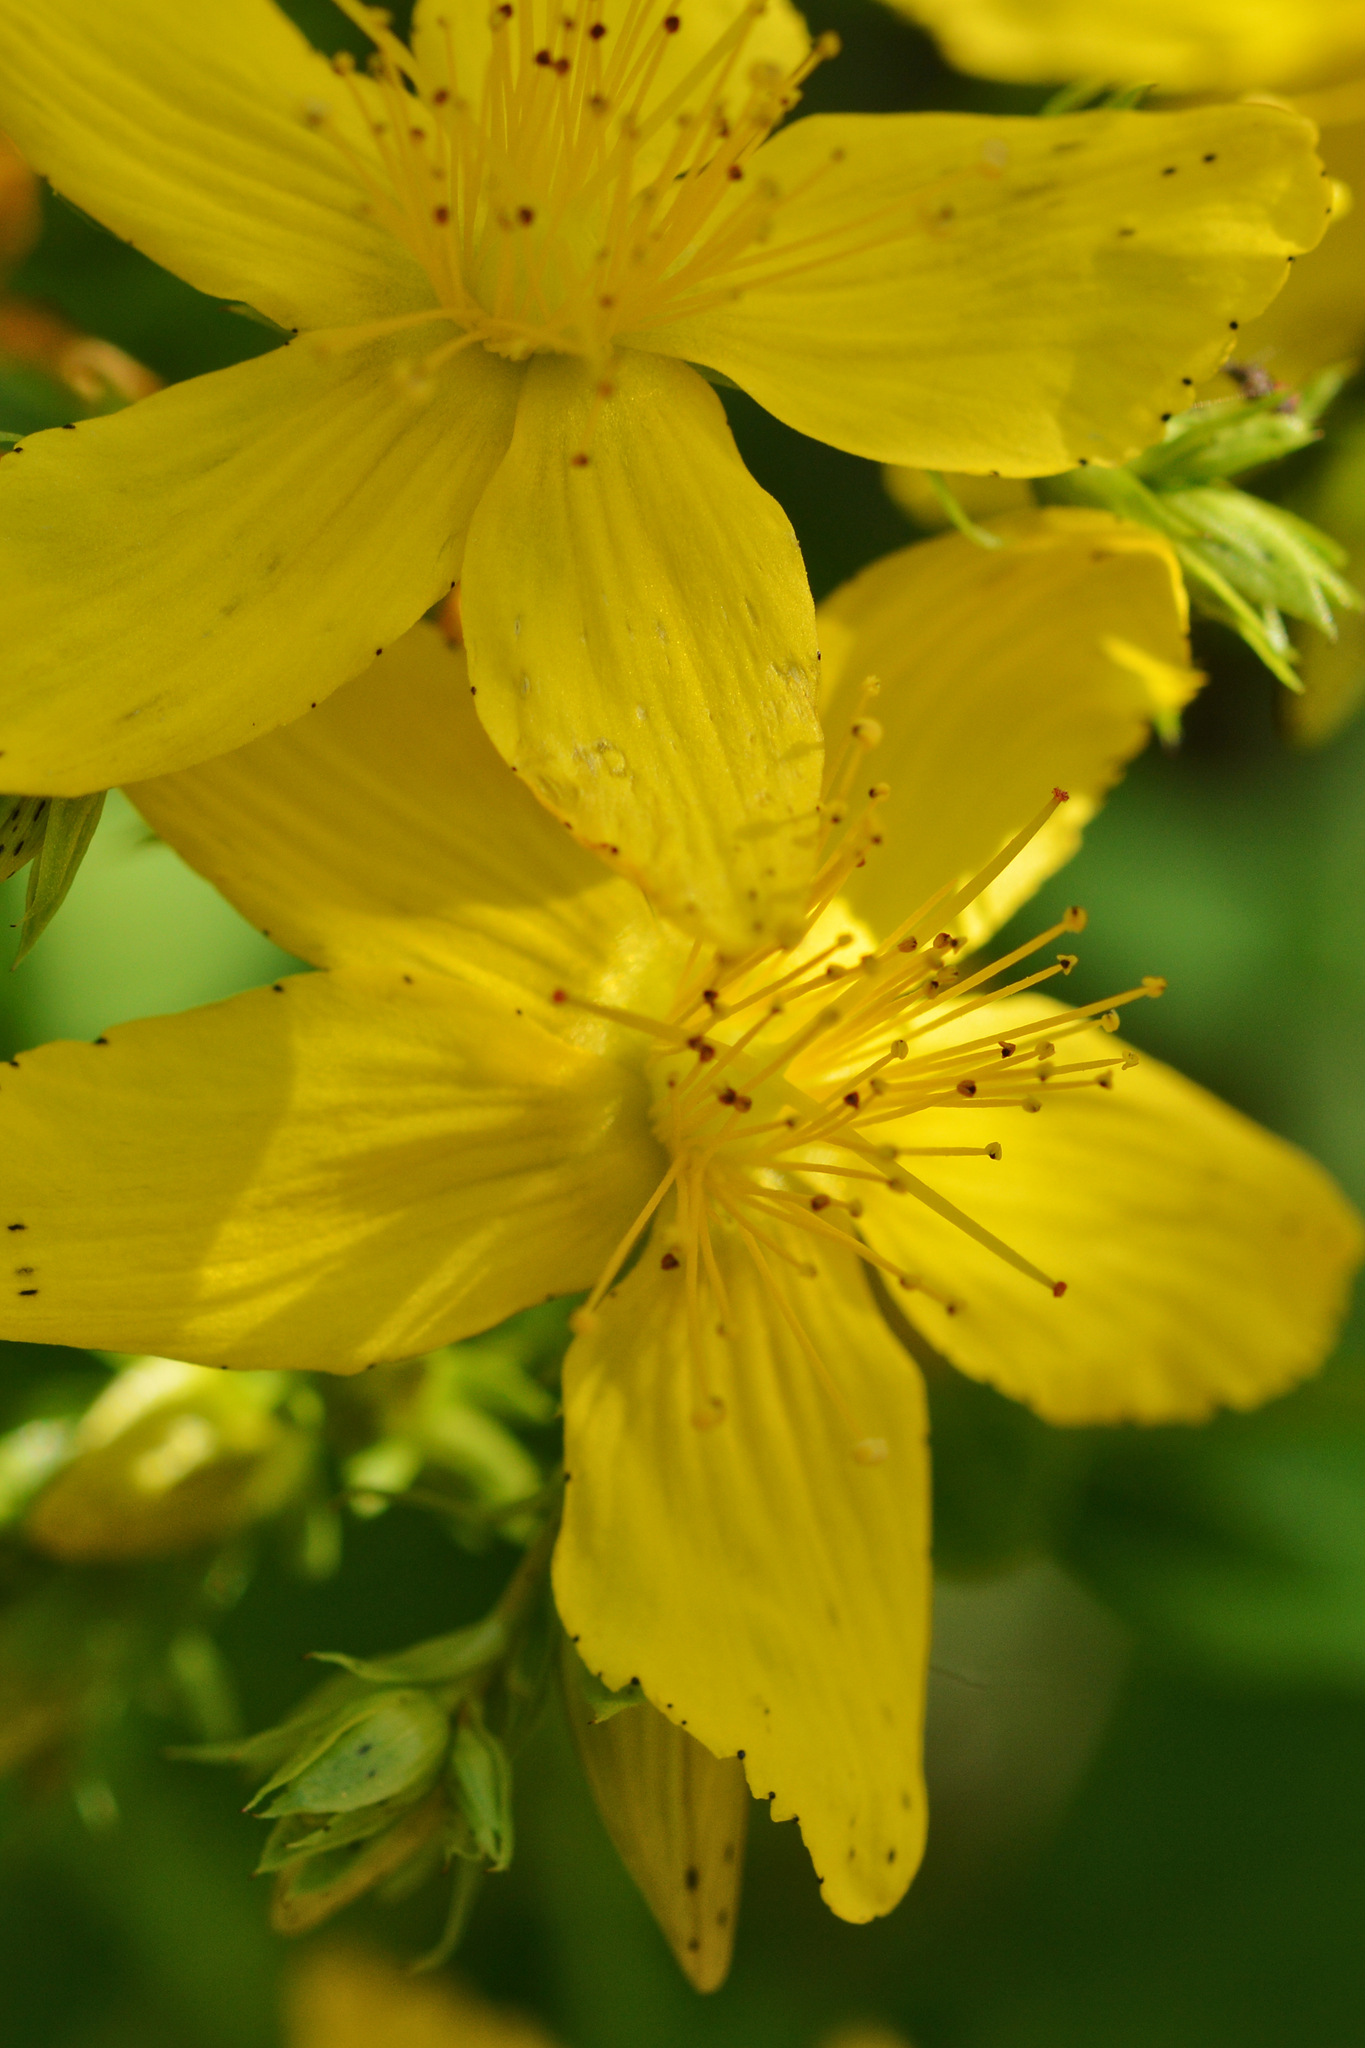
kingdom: Plantae
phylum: Tracheophyta
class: Magnoliopsida
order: Malpighiales
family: Hypericaceae
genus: Hypericum
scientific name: Hypericum perforatum
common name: Common st. johnswort
